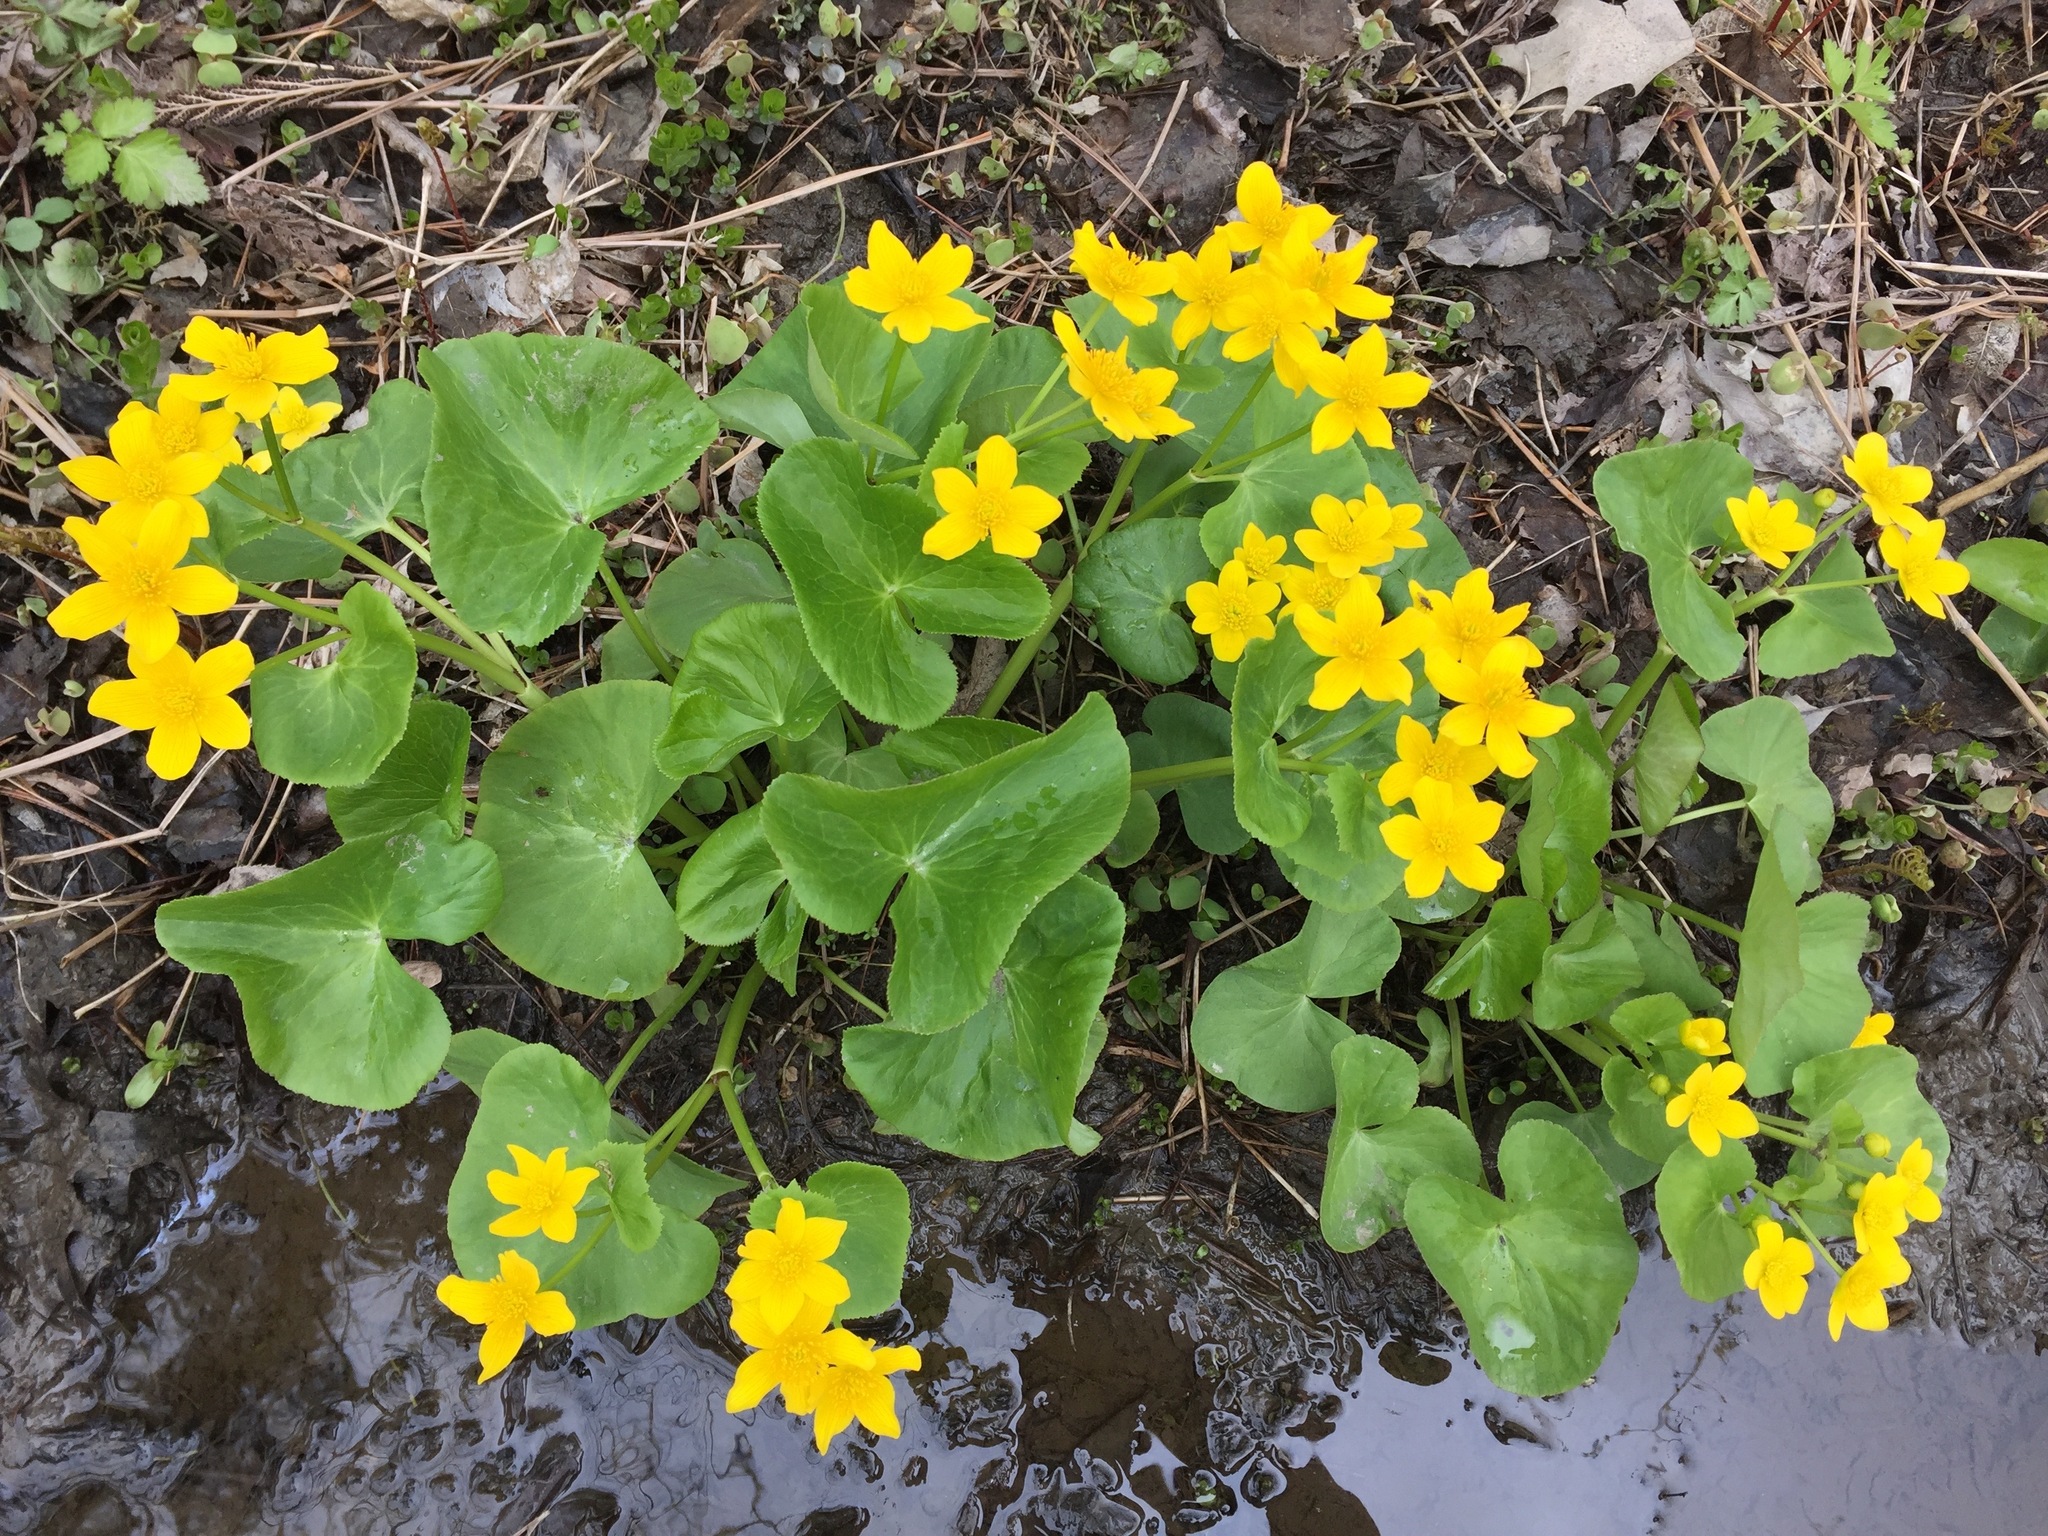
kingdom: Plantae
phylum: Tracheophyta
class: Magnoliopsida
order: Ranunculales
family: Ranunculaceae
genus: Caltha
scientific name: Caltha palustris
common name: Marsh marigold
